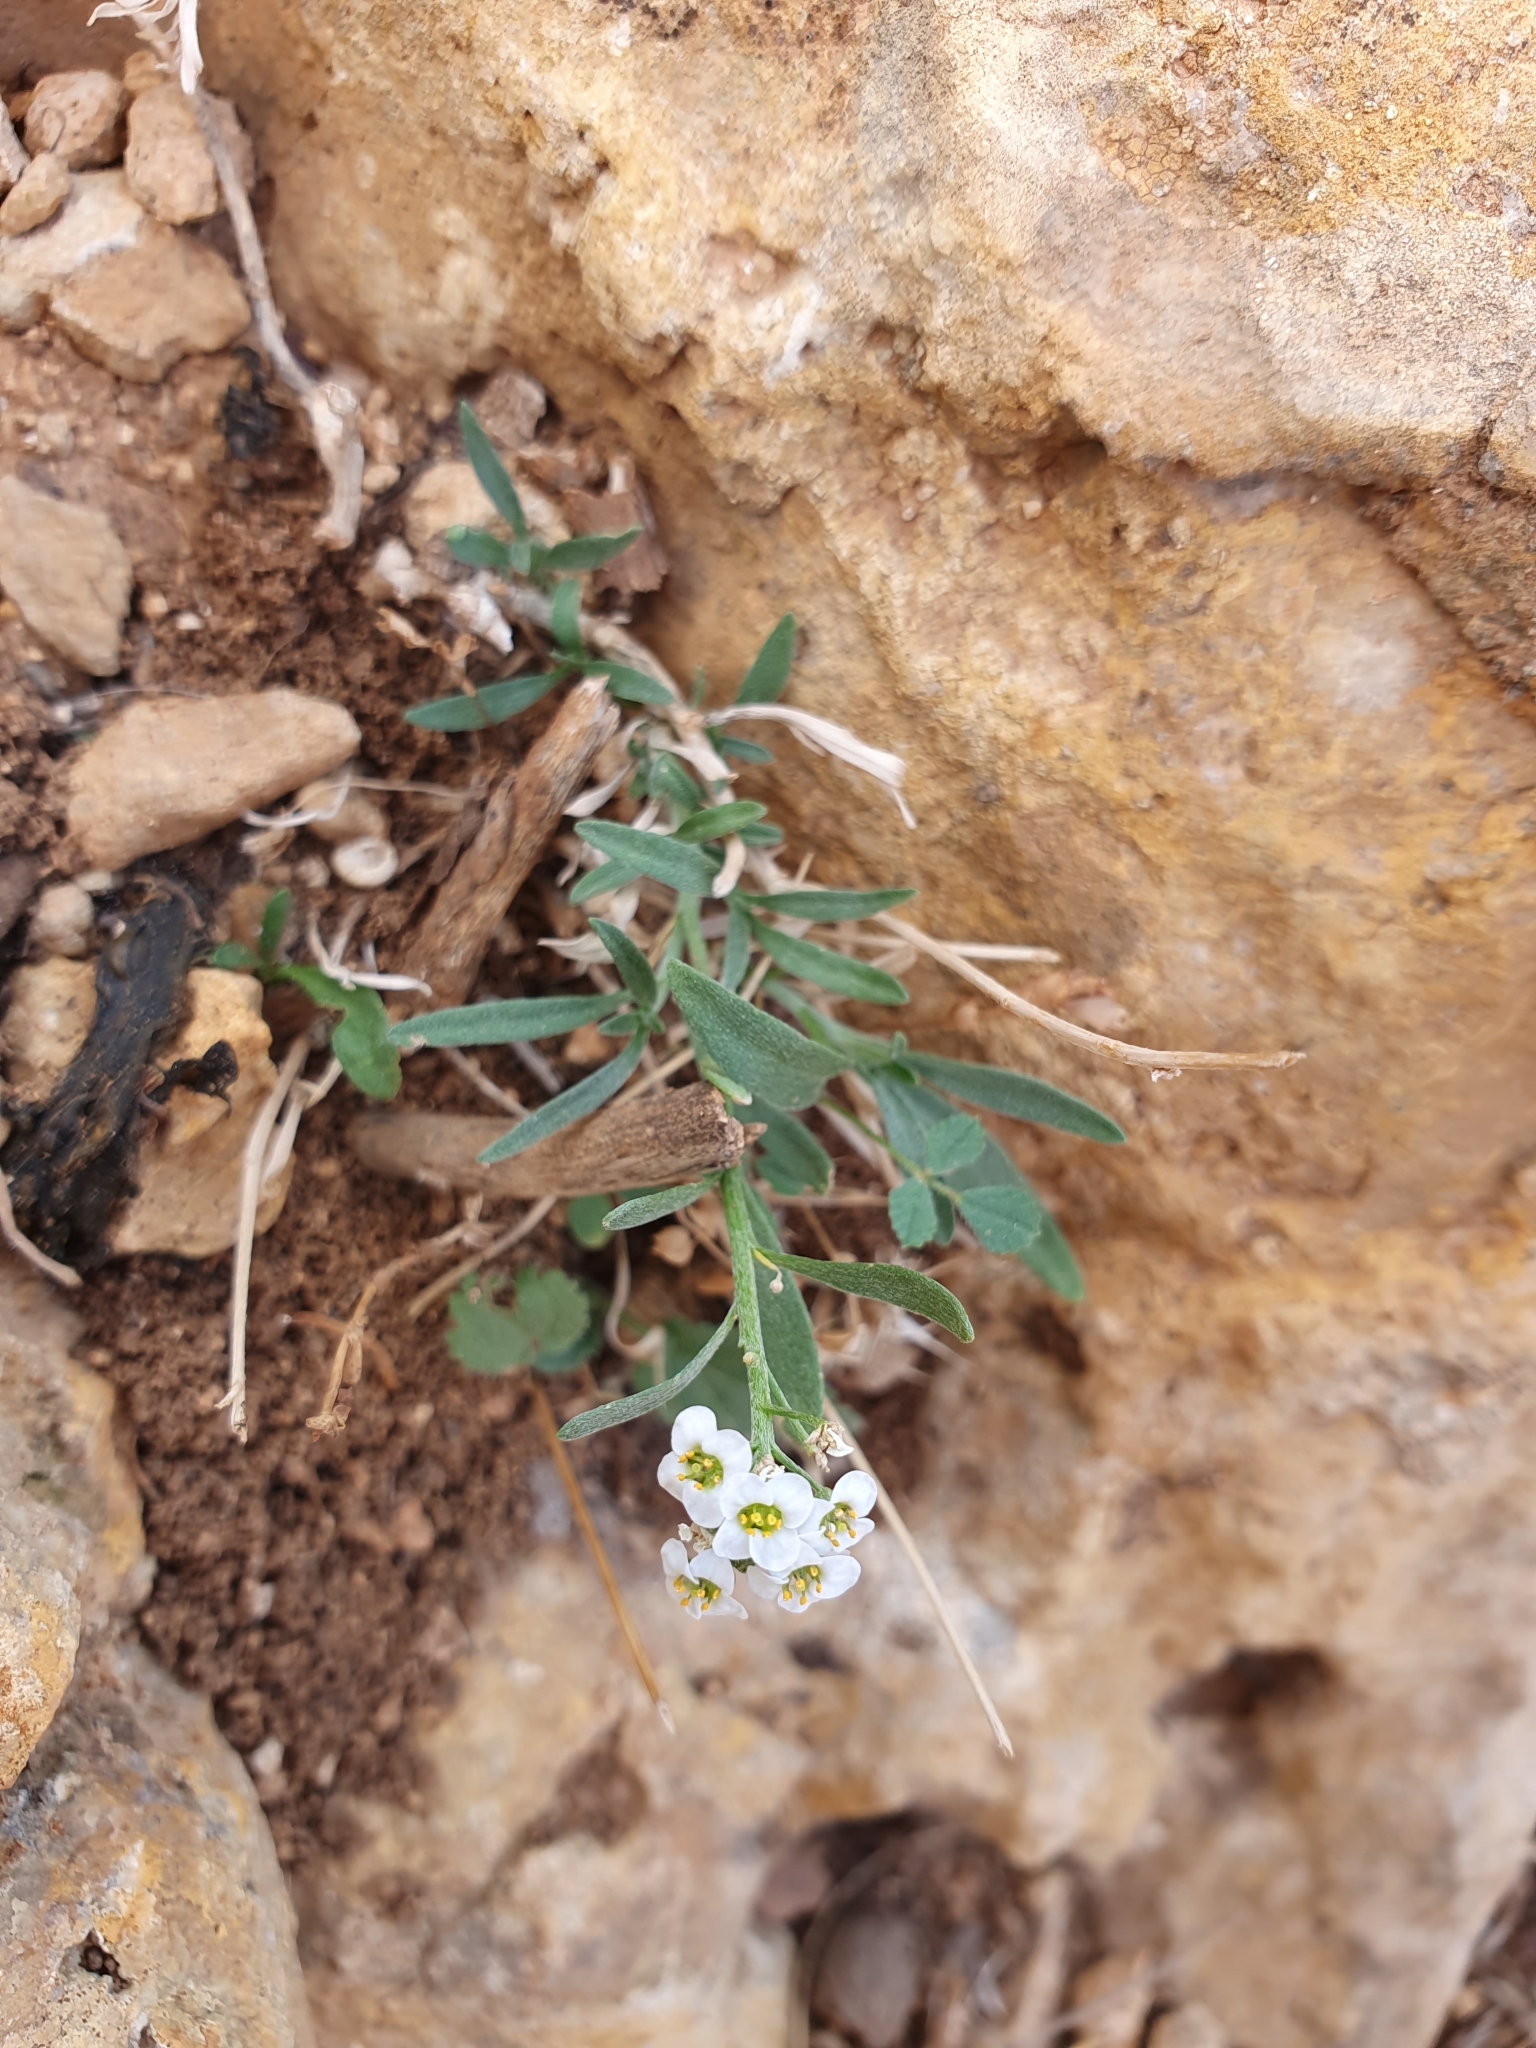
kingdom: Plantae
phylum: Tracheophyta
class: Magnoliopsida
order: Brassicales
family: Brassicaceae
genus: Lobularia
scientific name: Lobularia maritima
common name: Sweet alison
